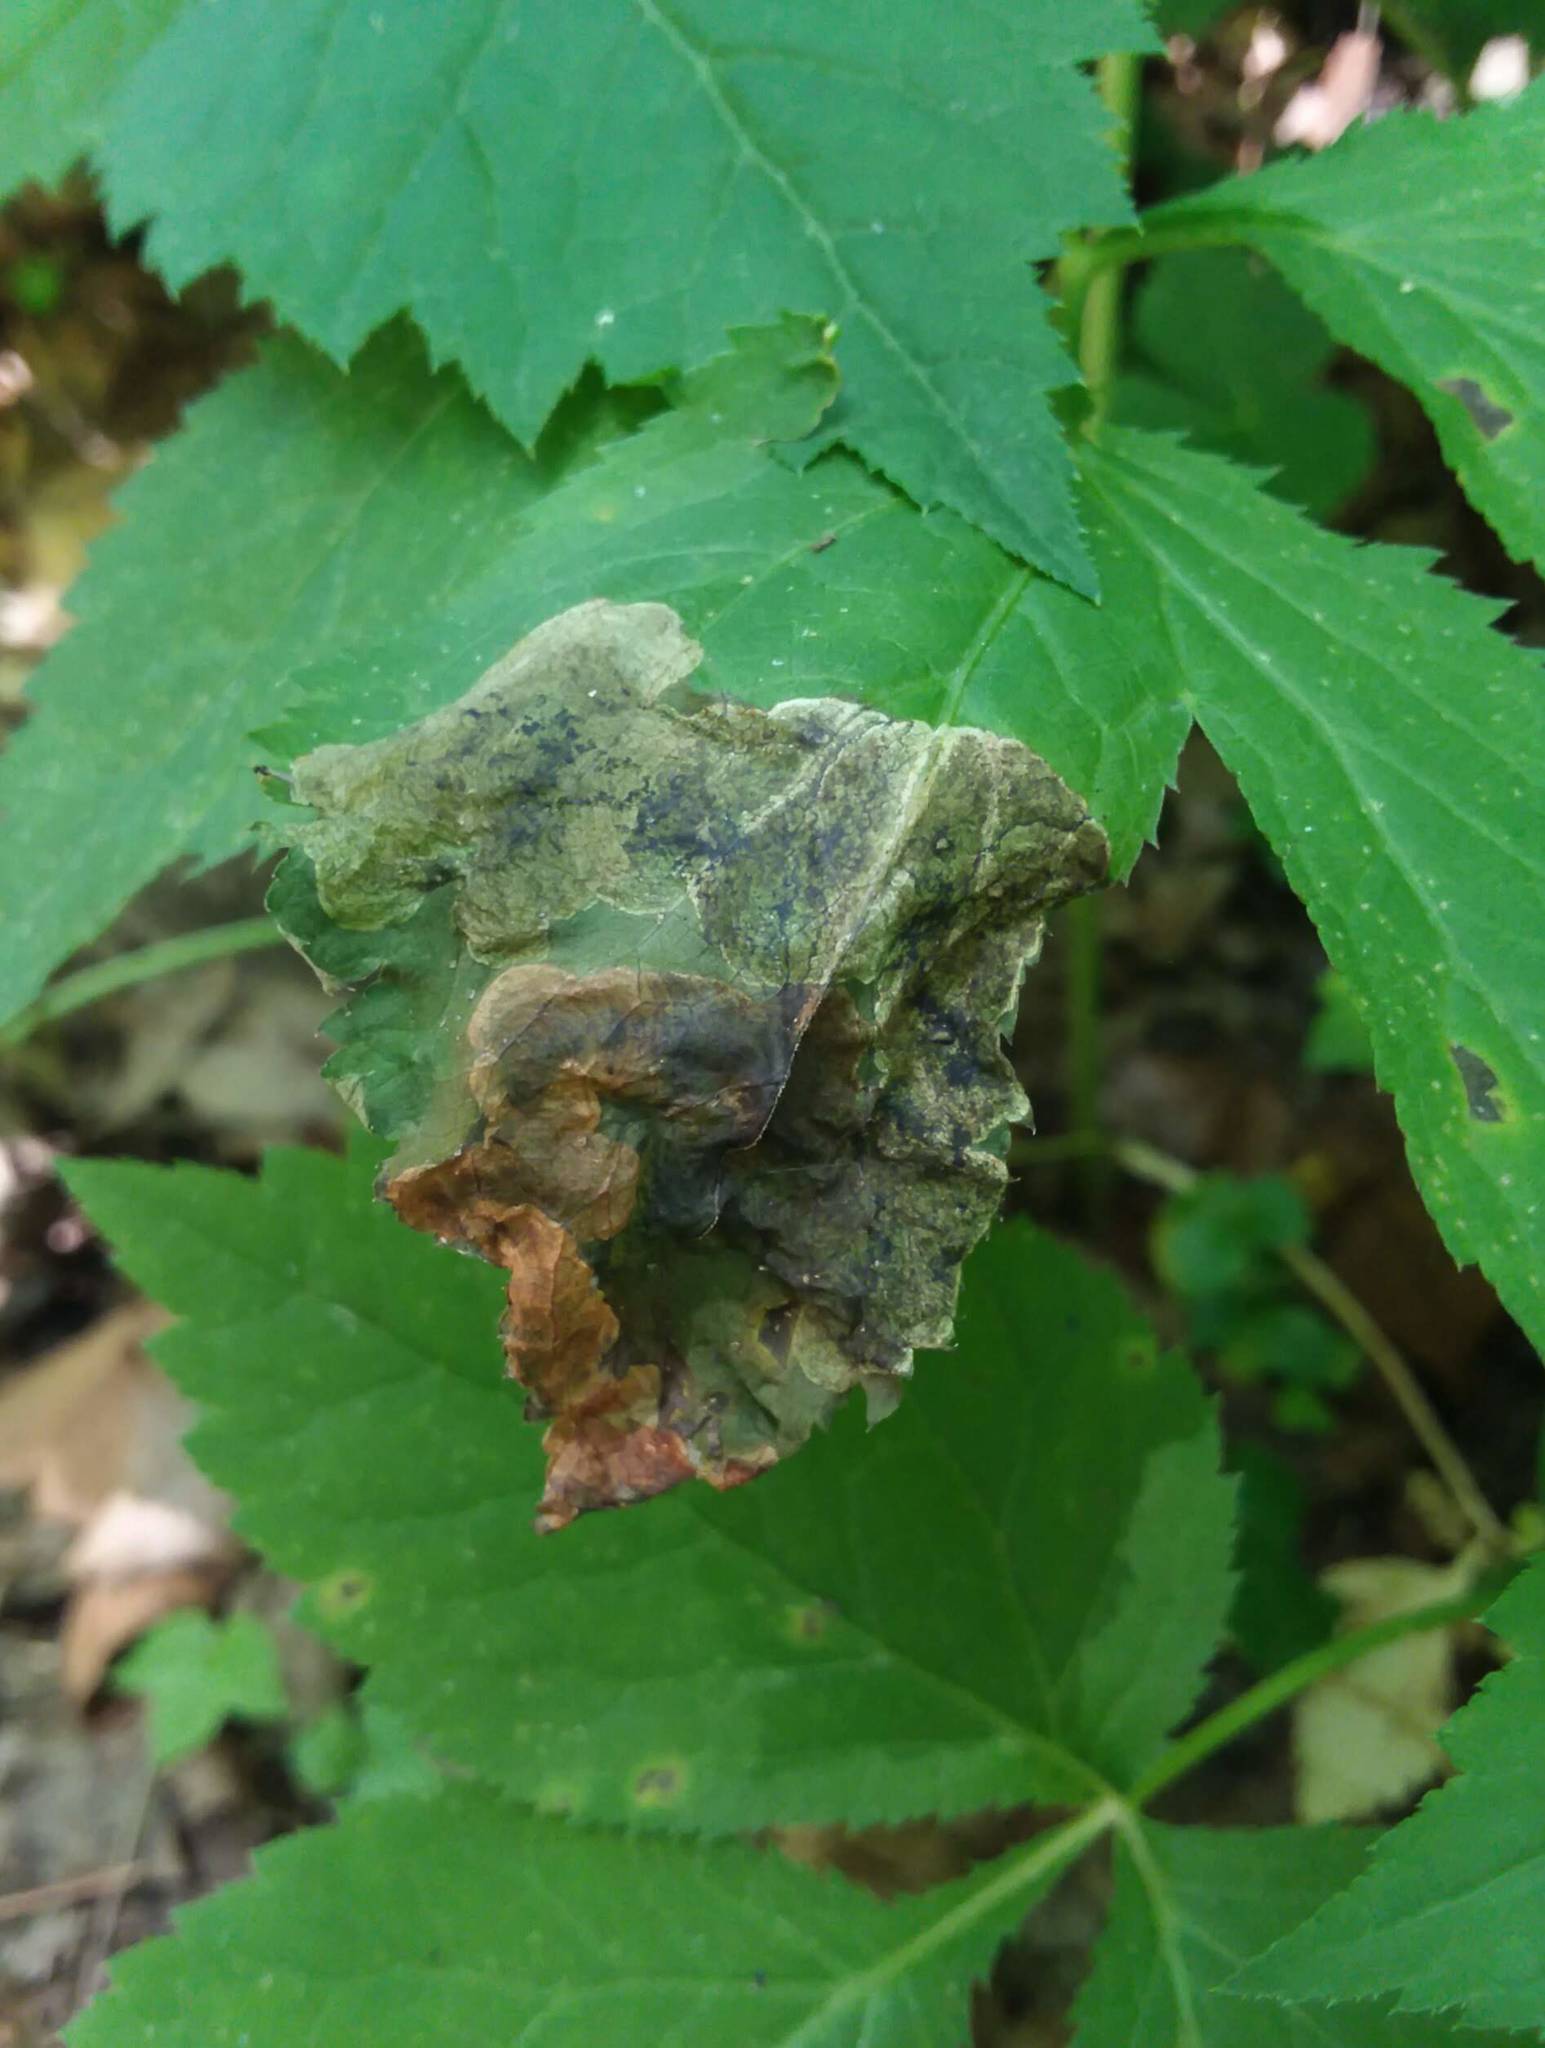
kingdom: Animalia
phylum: Arthropoda
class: Insecta
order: Diptera
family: Tephritidae
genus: Euleia
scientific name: Euleia fratria
